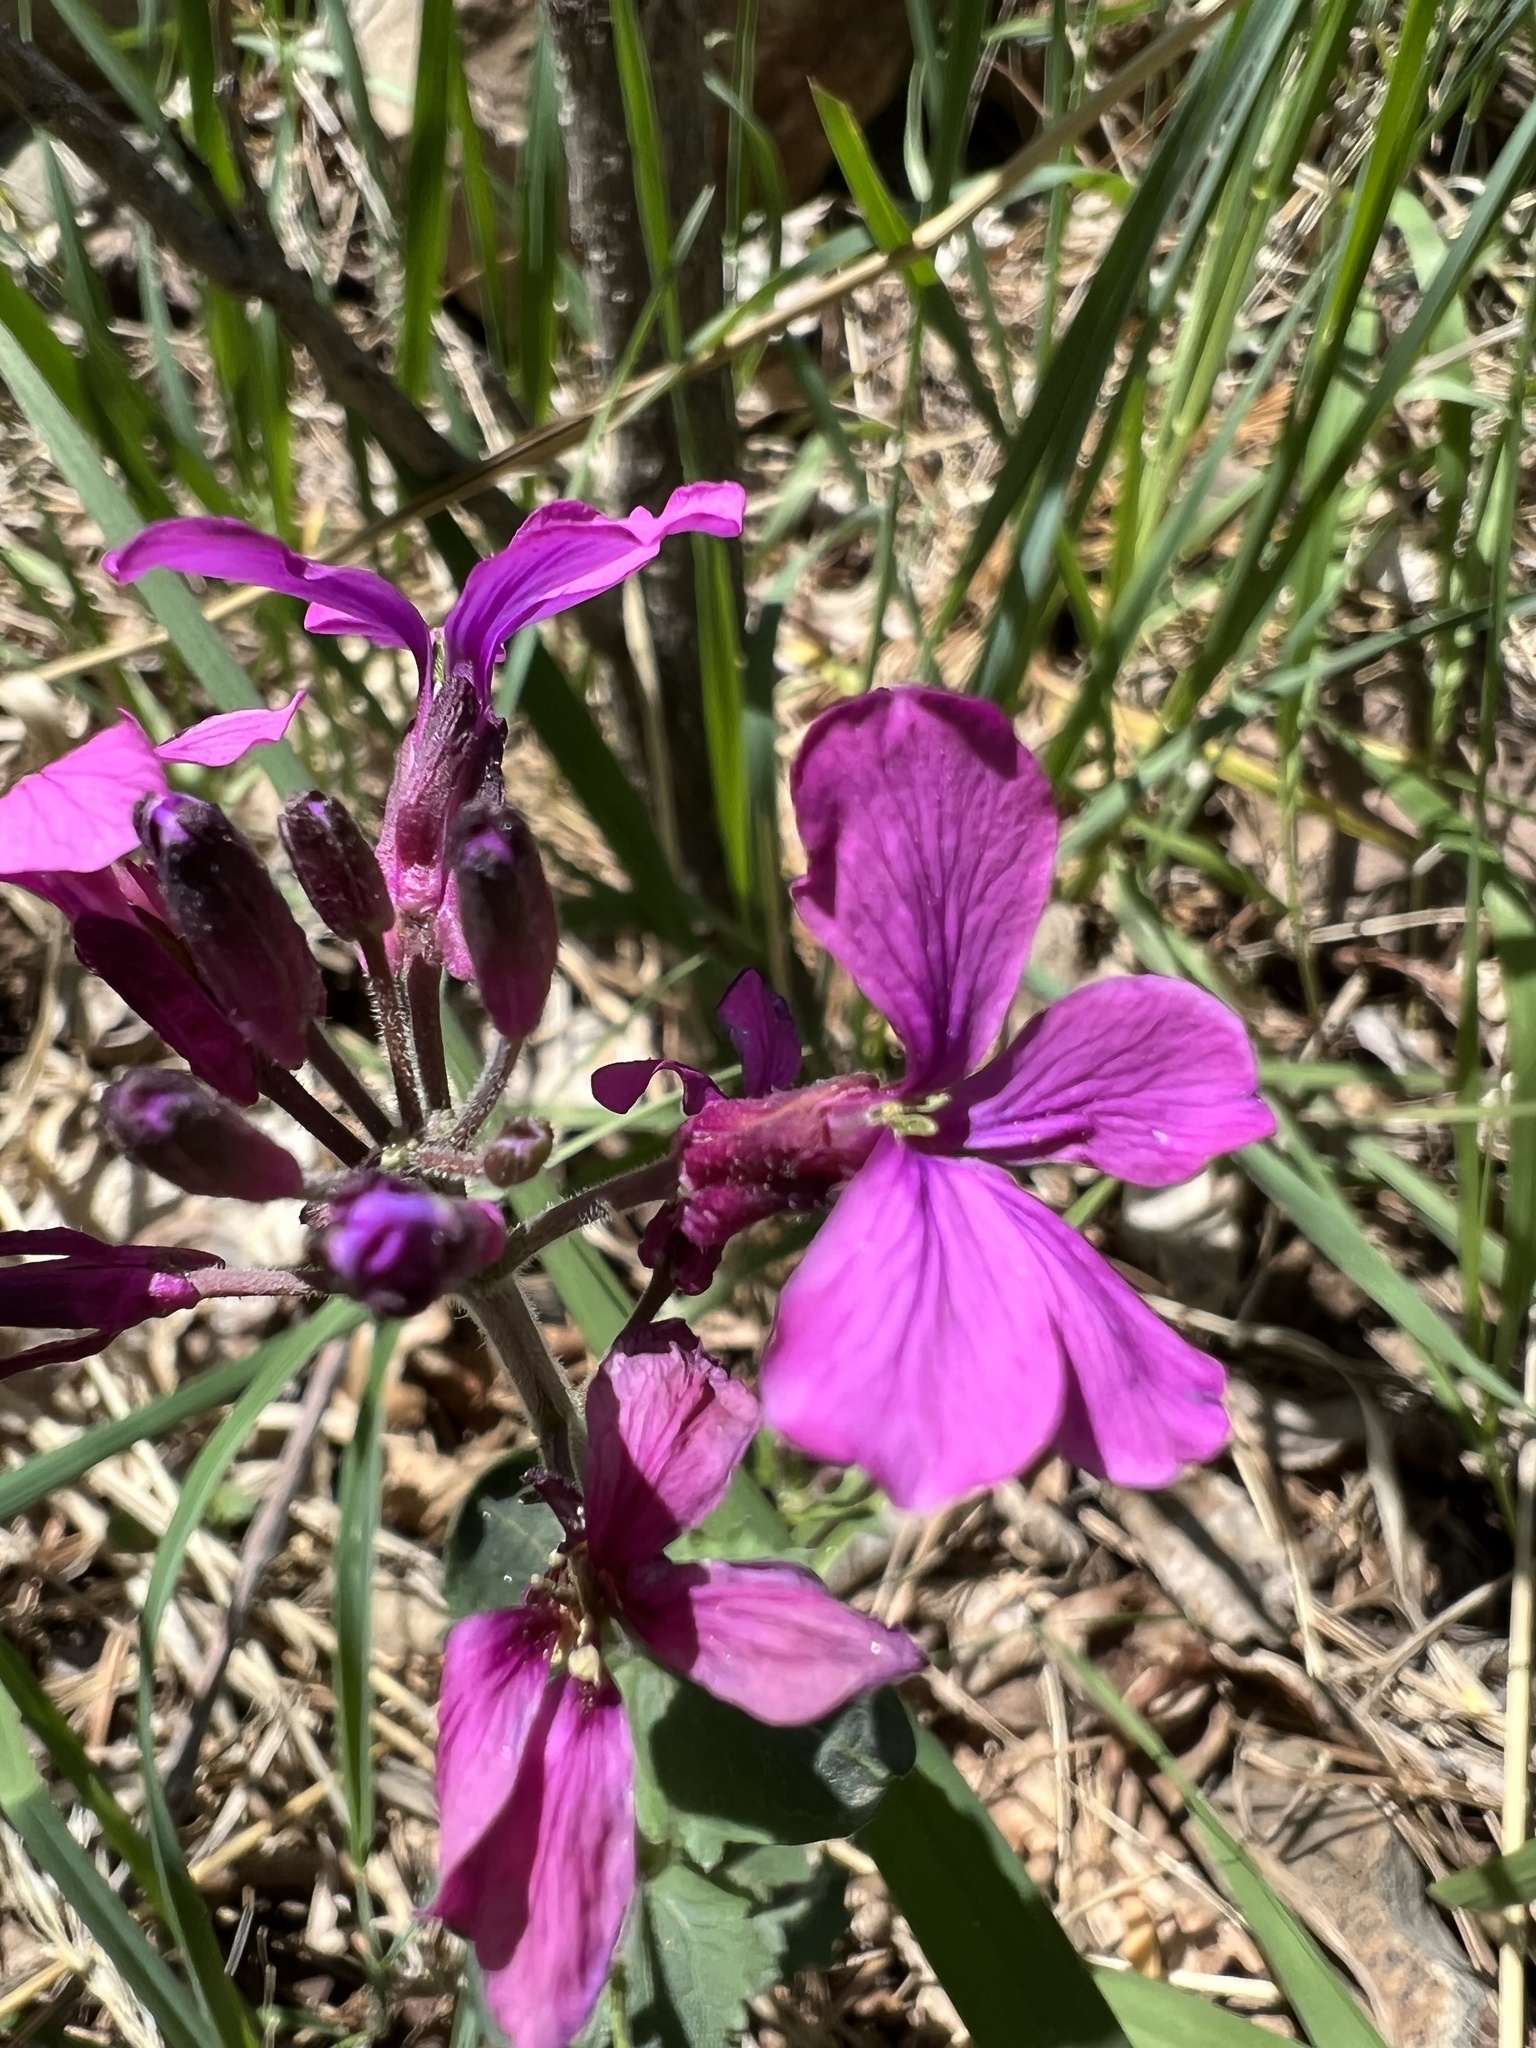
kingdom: Plantae
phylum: Tracheophyta
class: Magnoliopsida
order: Brassicales
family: Brassicaceae
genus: Lunaria
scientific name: Lunaria annua
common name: Honesty
